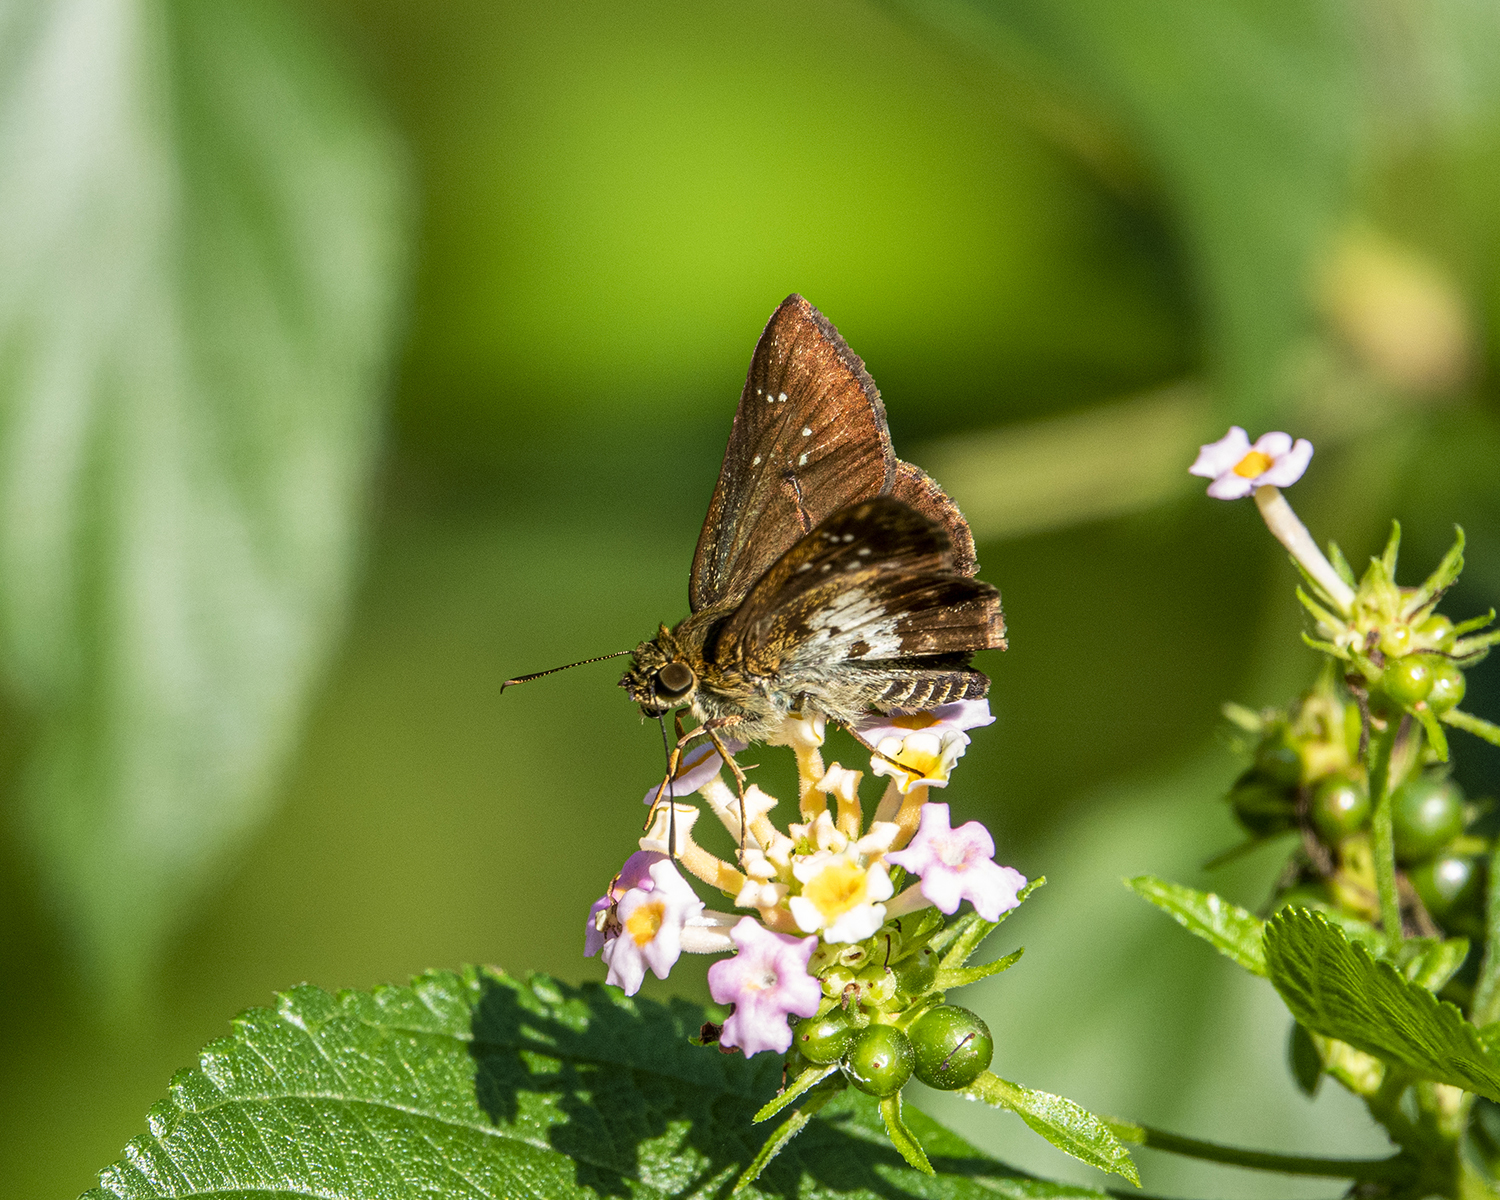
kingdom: Animalia
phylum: Arthropoda
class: Insecta
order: Lepidoptera
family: Hesperiidae
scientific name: Hesperiidae
